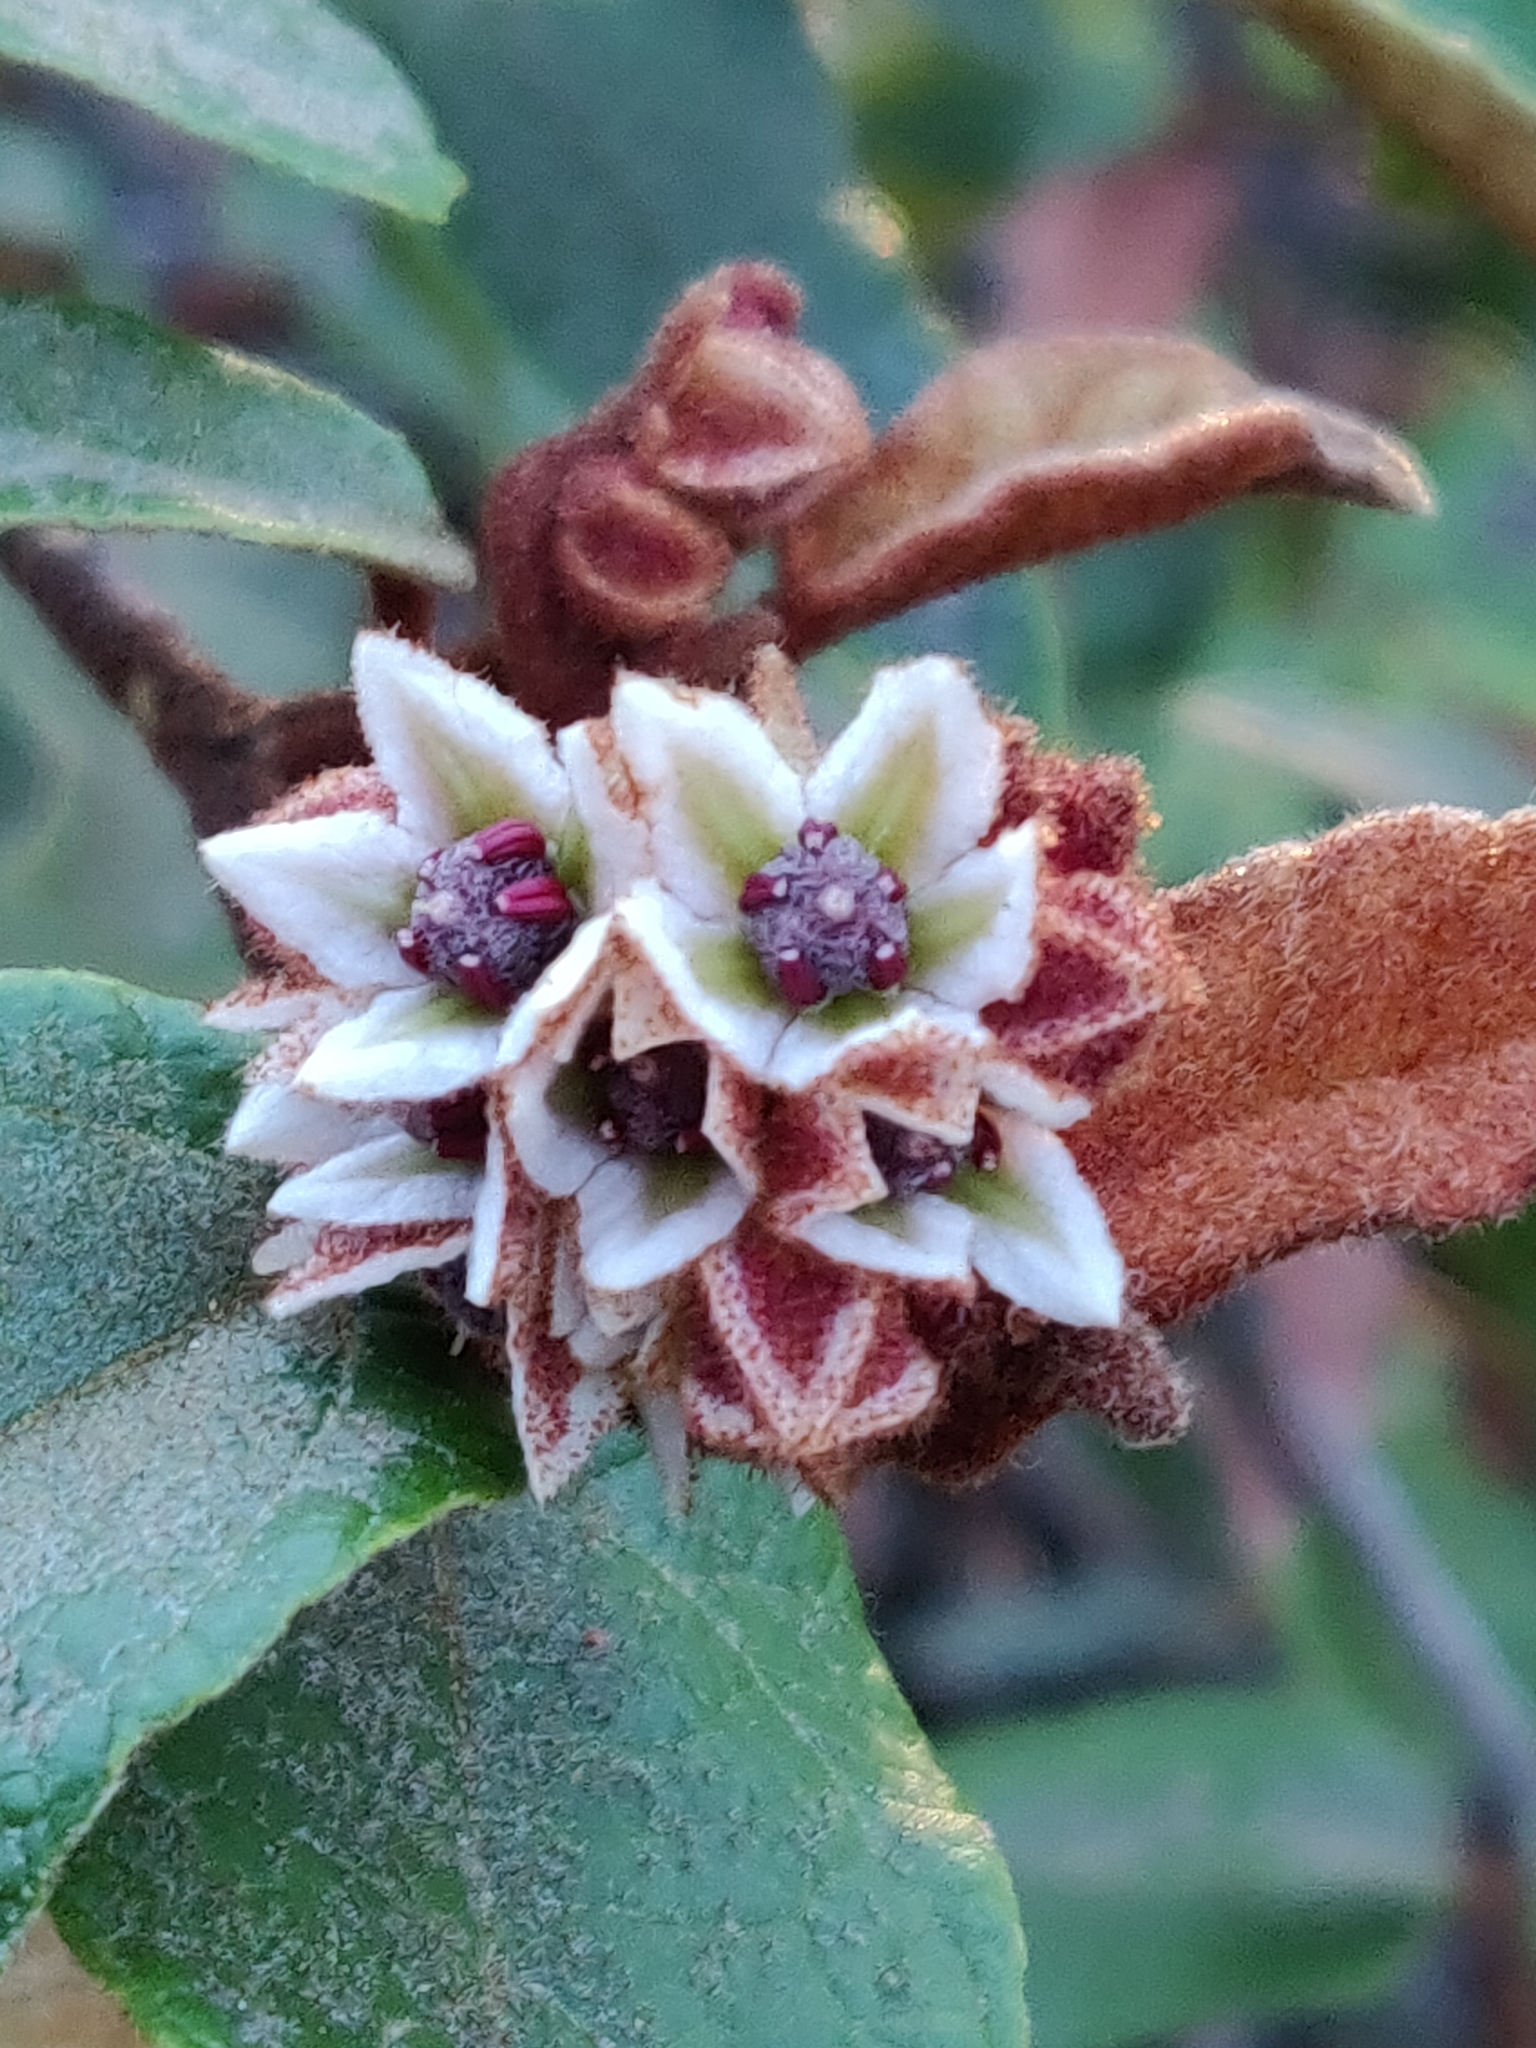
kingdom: Plantae
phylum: Tracheophyta
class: Magnoliopsida
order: Malvales
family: Malvaceae
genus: Lasiopetalum
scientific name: Lasiopetalum macrophyllum
